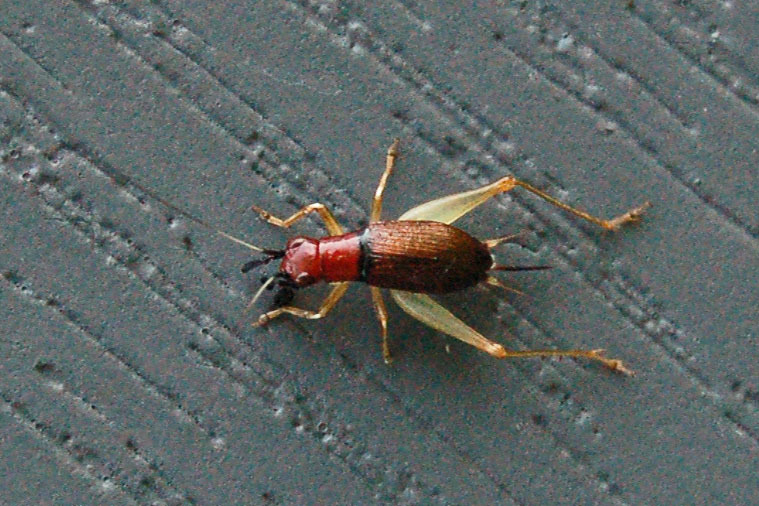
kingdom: Animalia
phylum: Arthropoda
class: Insecta
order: Orthoptera
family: Trigonidiidae
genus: Phyllopalpus
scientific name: Phyllopalpus pulchellus
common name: Handsome trig
